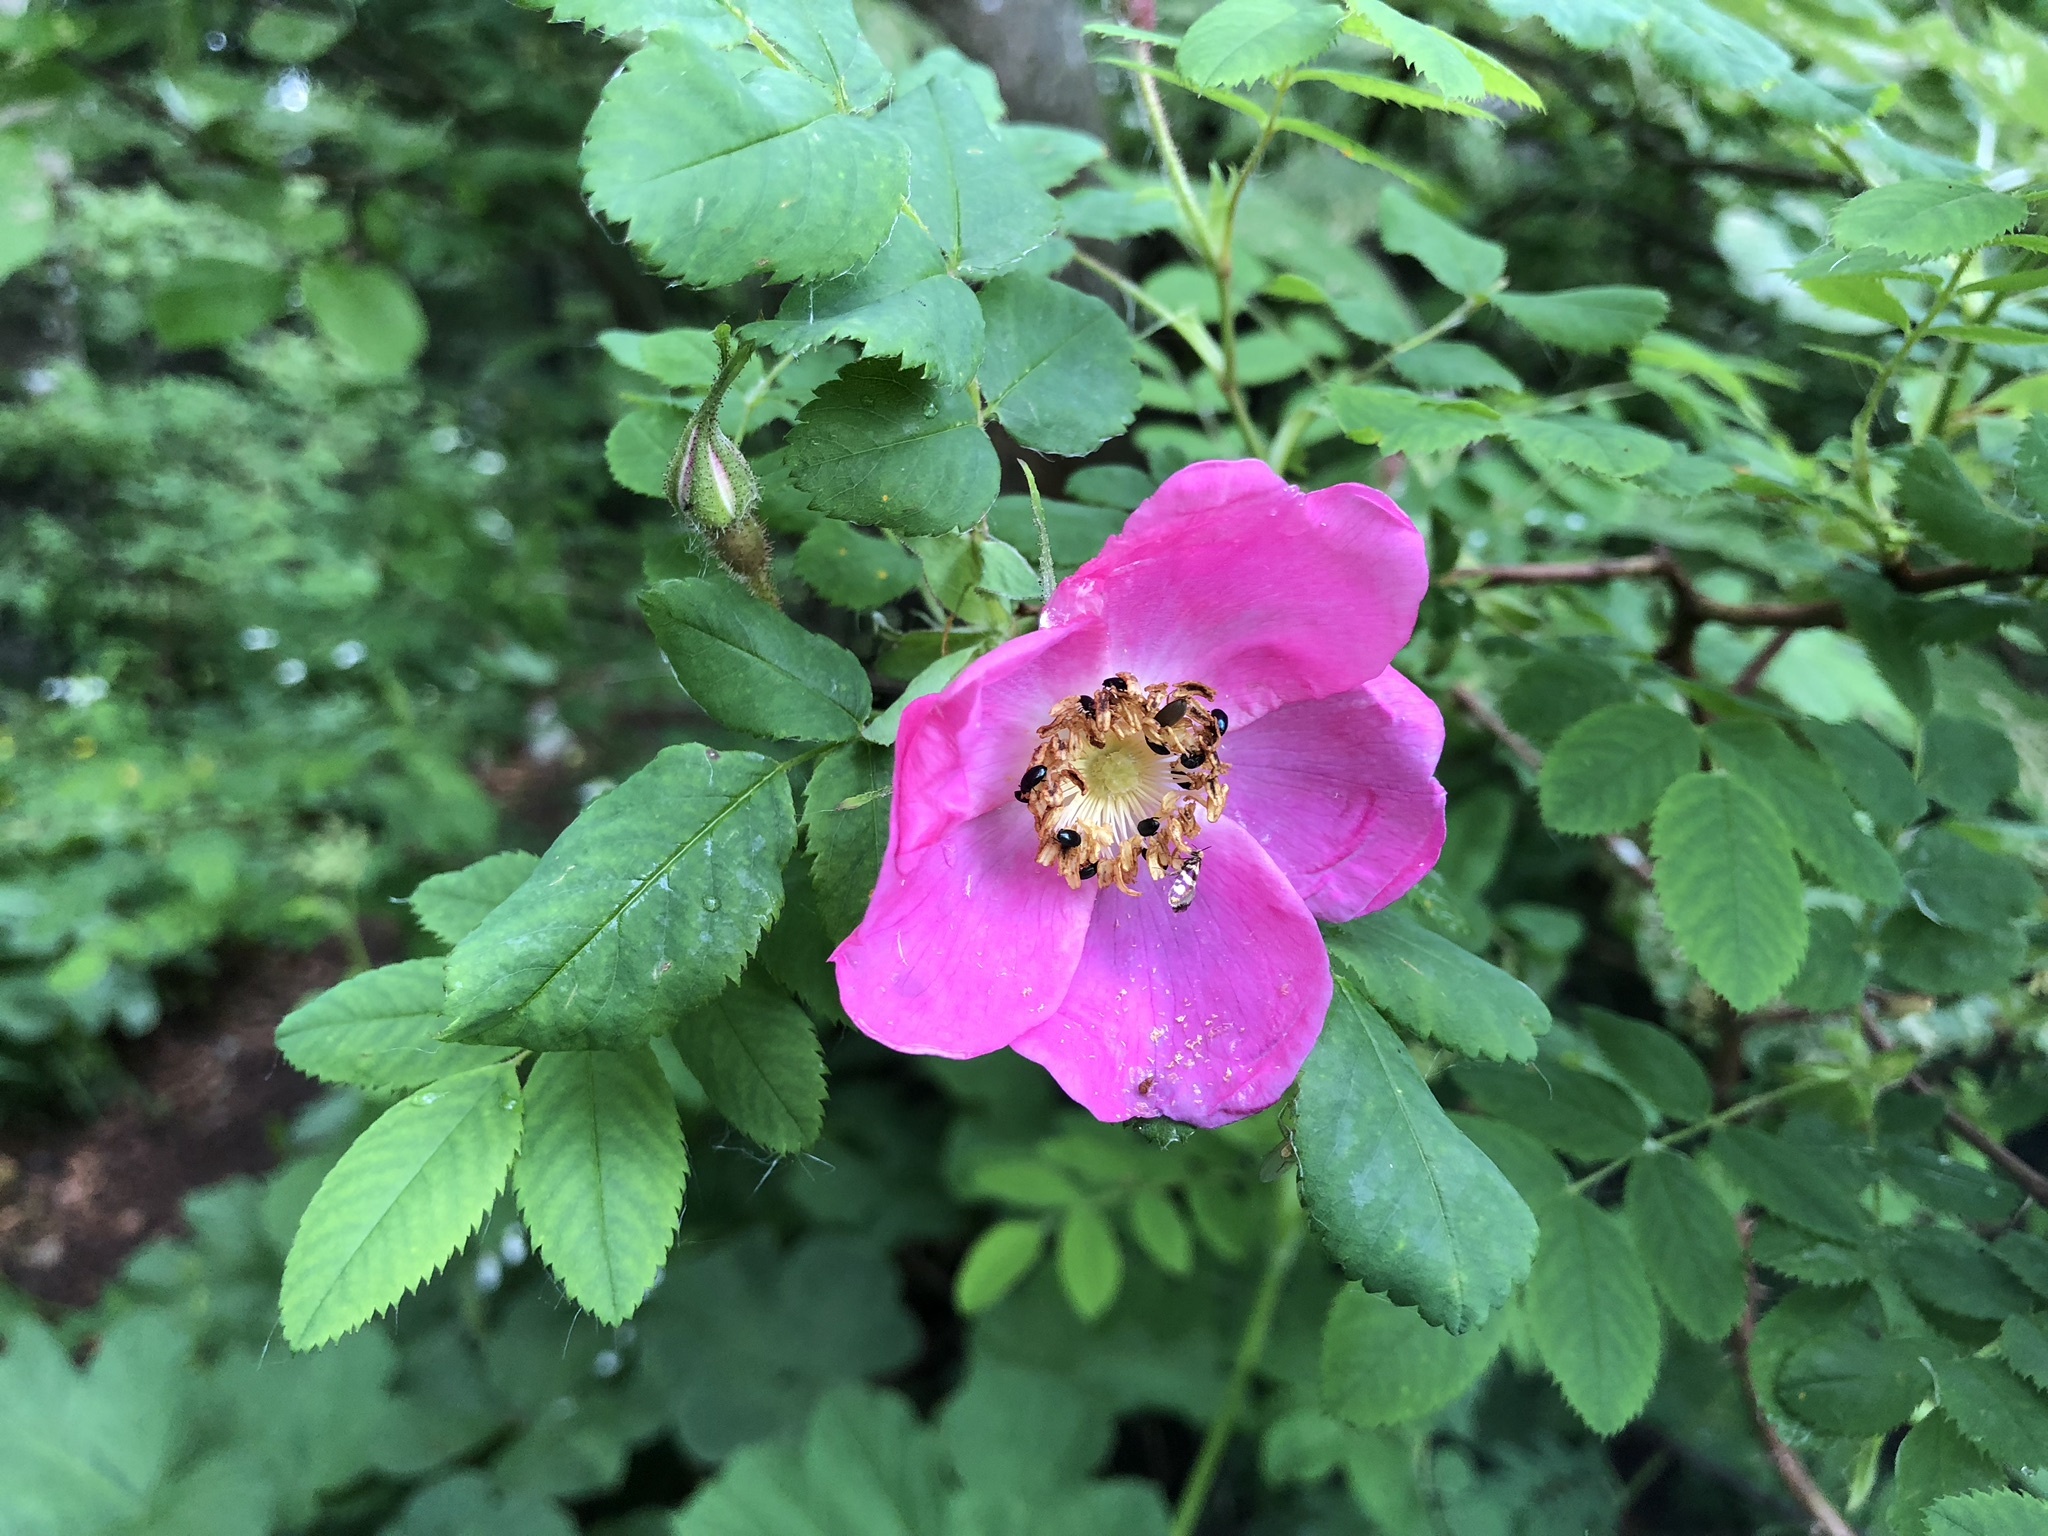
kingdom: Animalia
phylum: Arthropoda
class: Insecta
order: Lepidoptera
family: Micropterigidae
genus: Micropterix
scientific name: Micropterix rothenbachii
